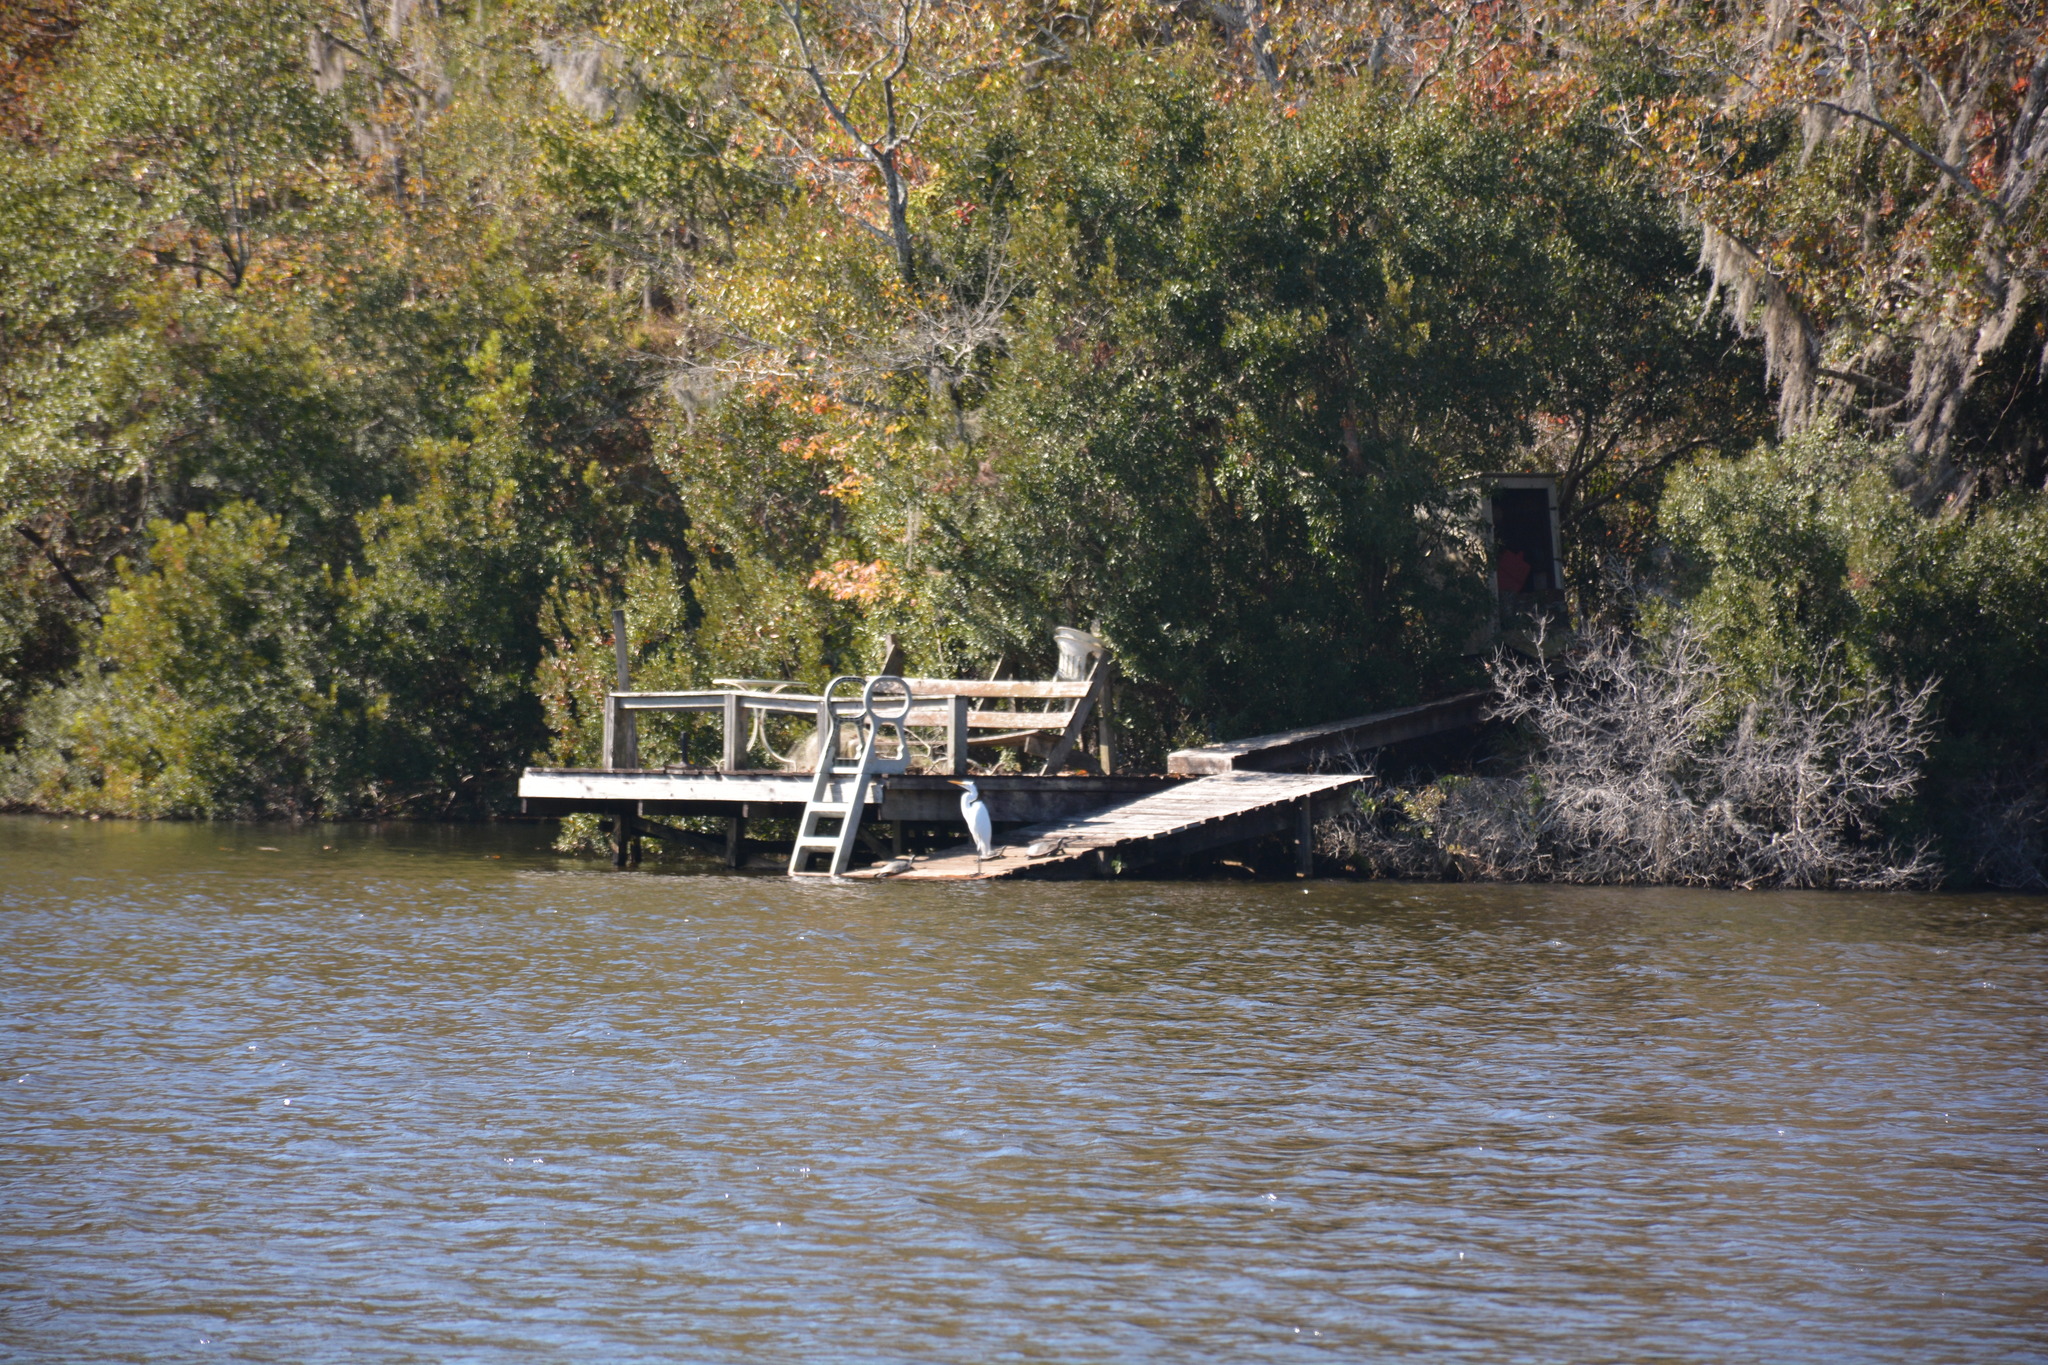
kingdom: Animalia
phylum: Chordata
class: Aves
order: Pelecaniformes
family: Ardeidae
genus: Ardea
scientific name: Ardea alba
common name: Great egret
